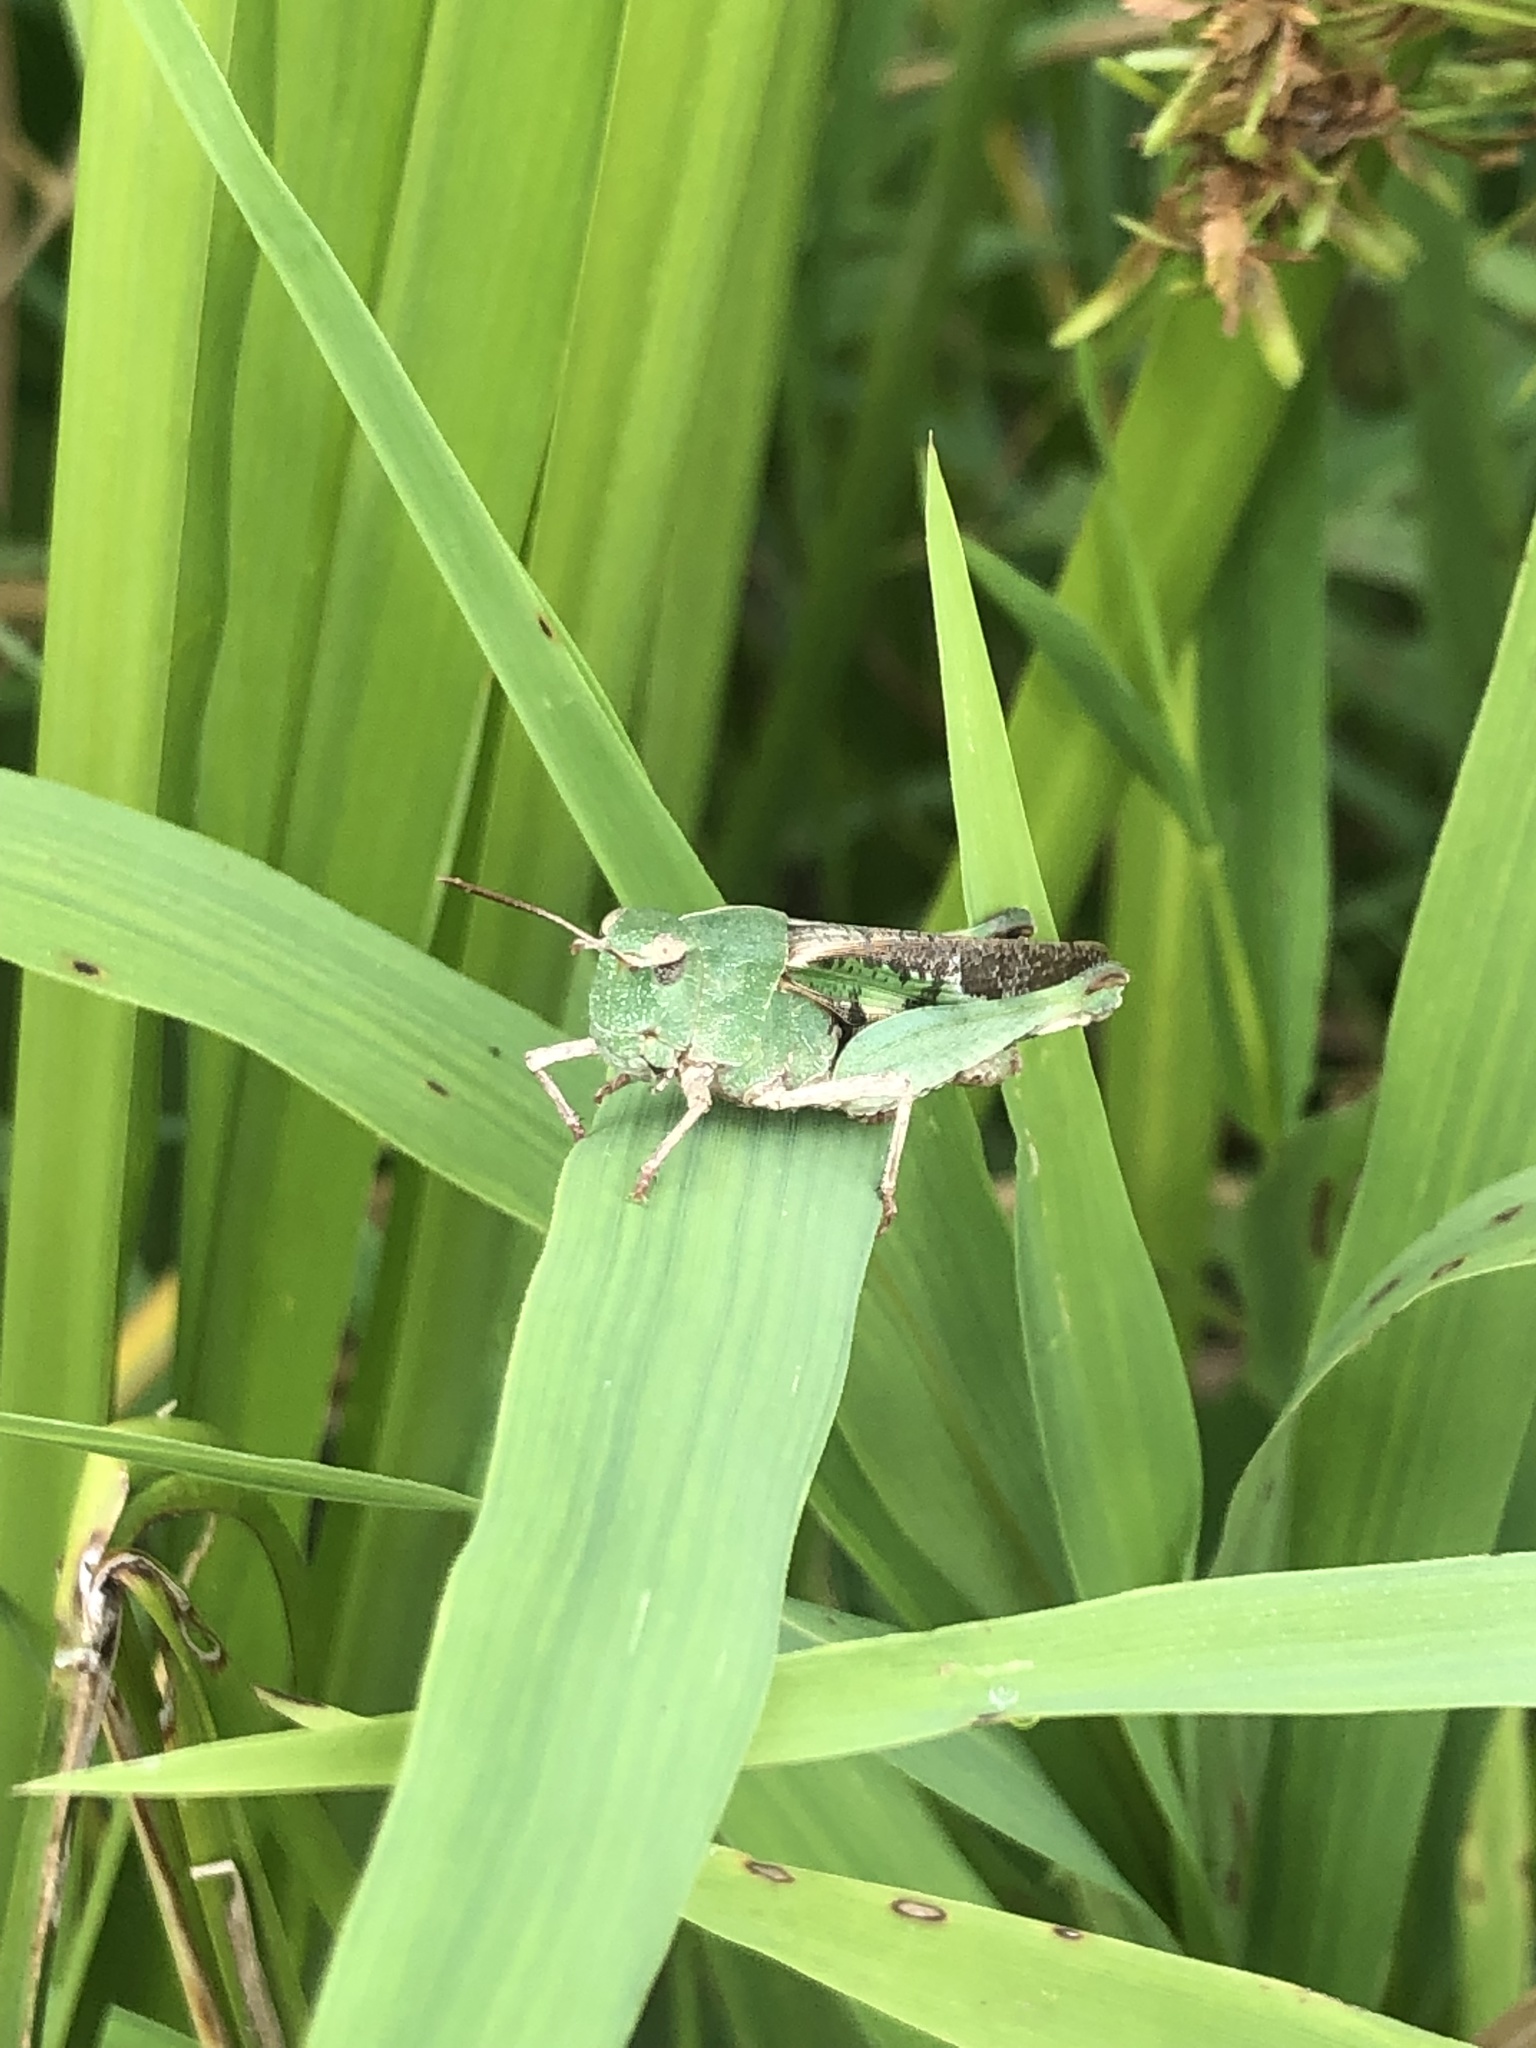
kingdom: Animalia
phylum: Arthropoda
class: Insecta
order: Orthoptera
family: Acrididae
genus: Chortophaga
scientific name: Chortophaga viridifasciata
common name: Green-striped grasshopper
